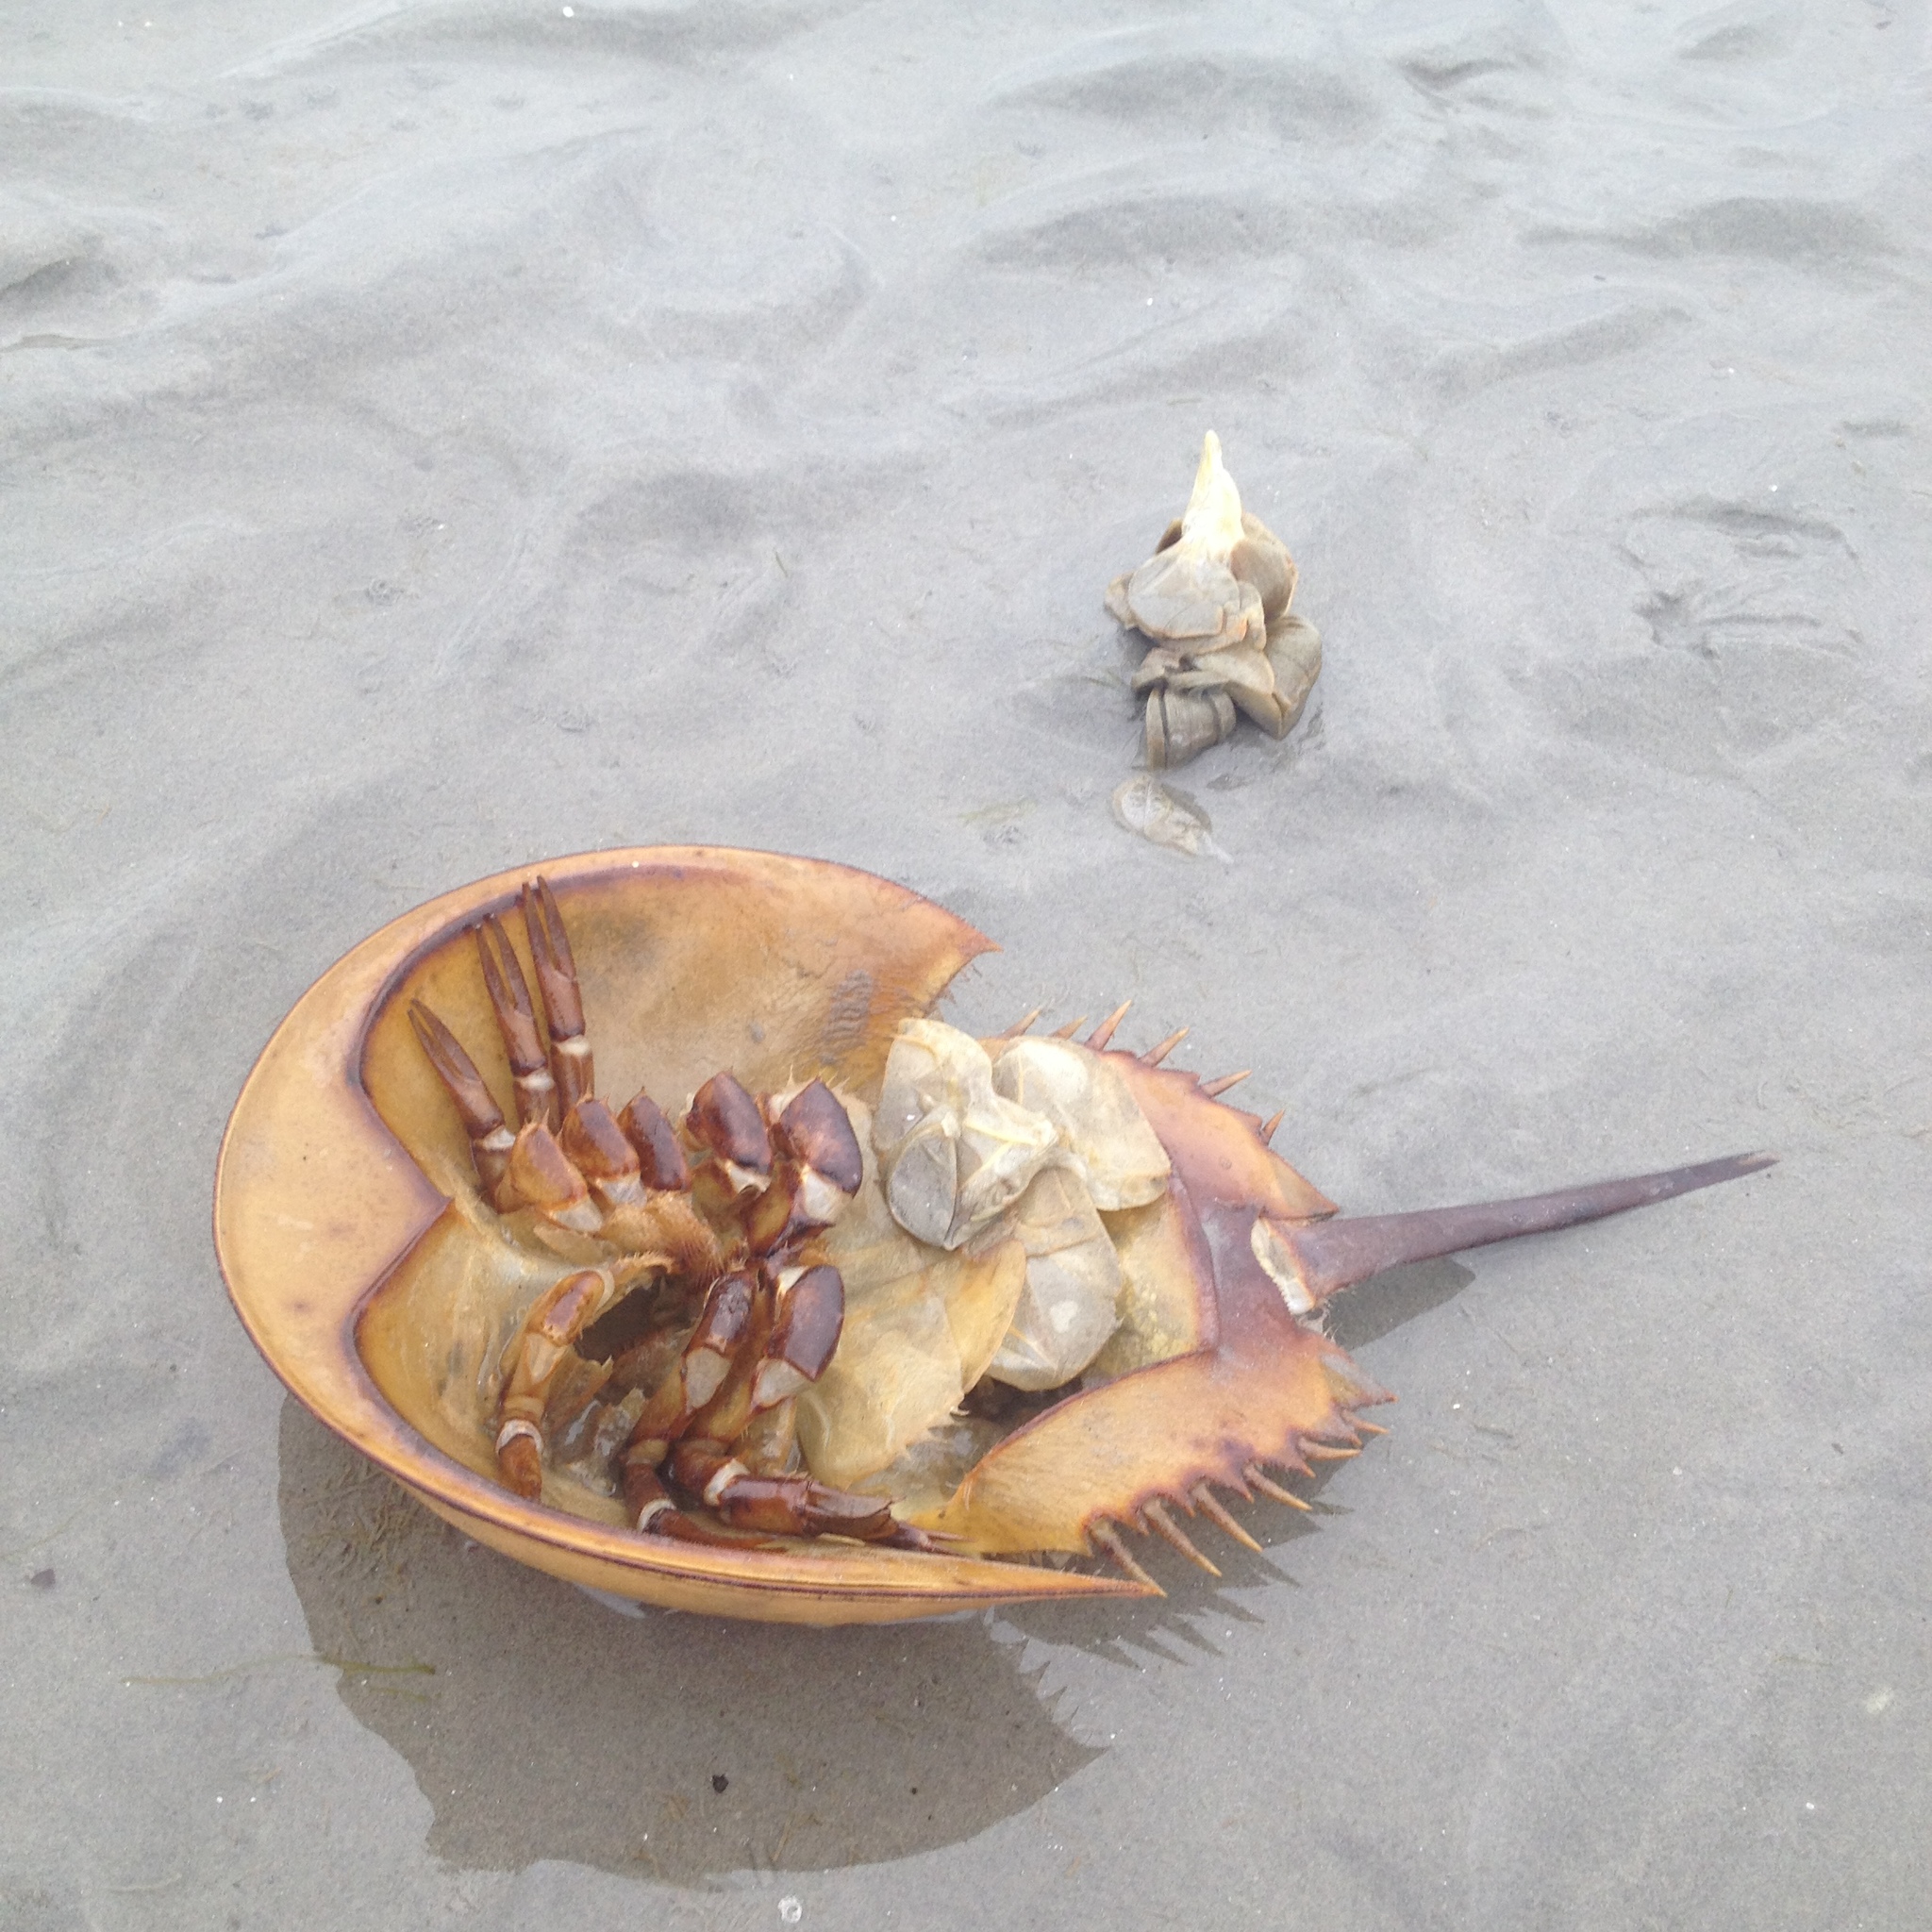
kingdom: Animalia
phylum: Arthropoda
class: Merostomata
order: Xiphosurida
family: Limulidae
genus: Limulus
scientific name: Limulus polyphemus
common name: Horseshoe crab
